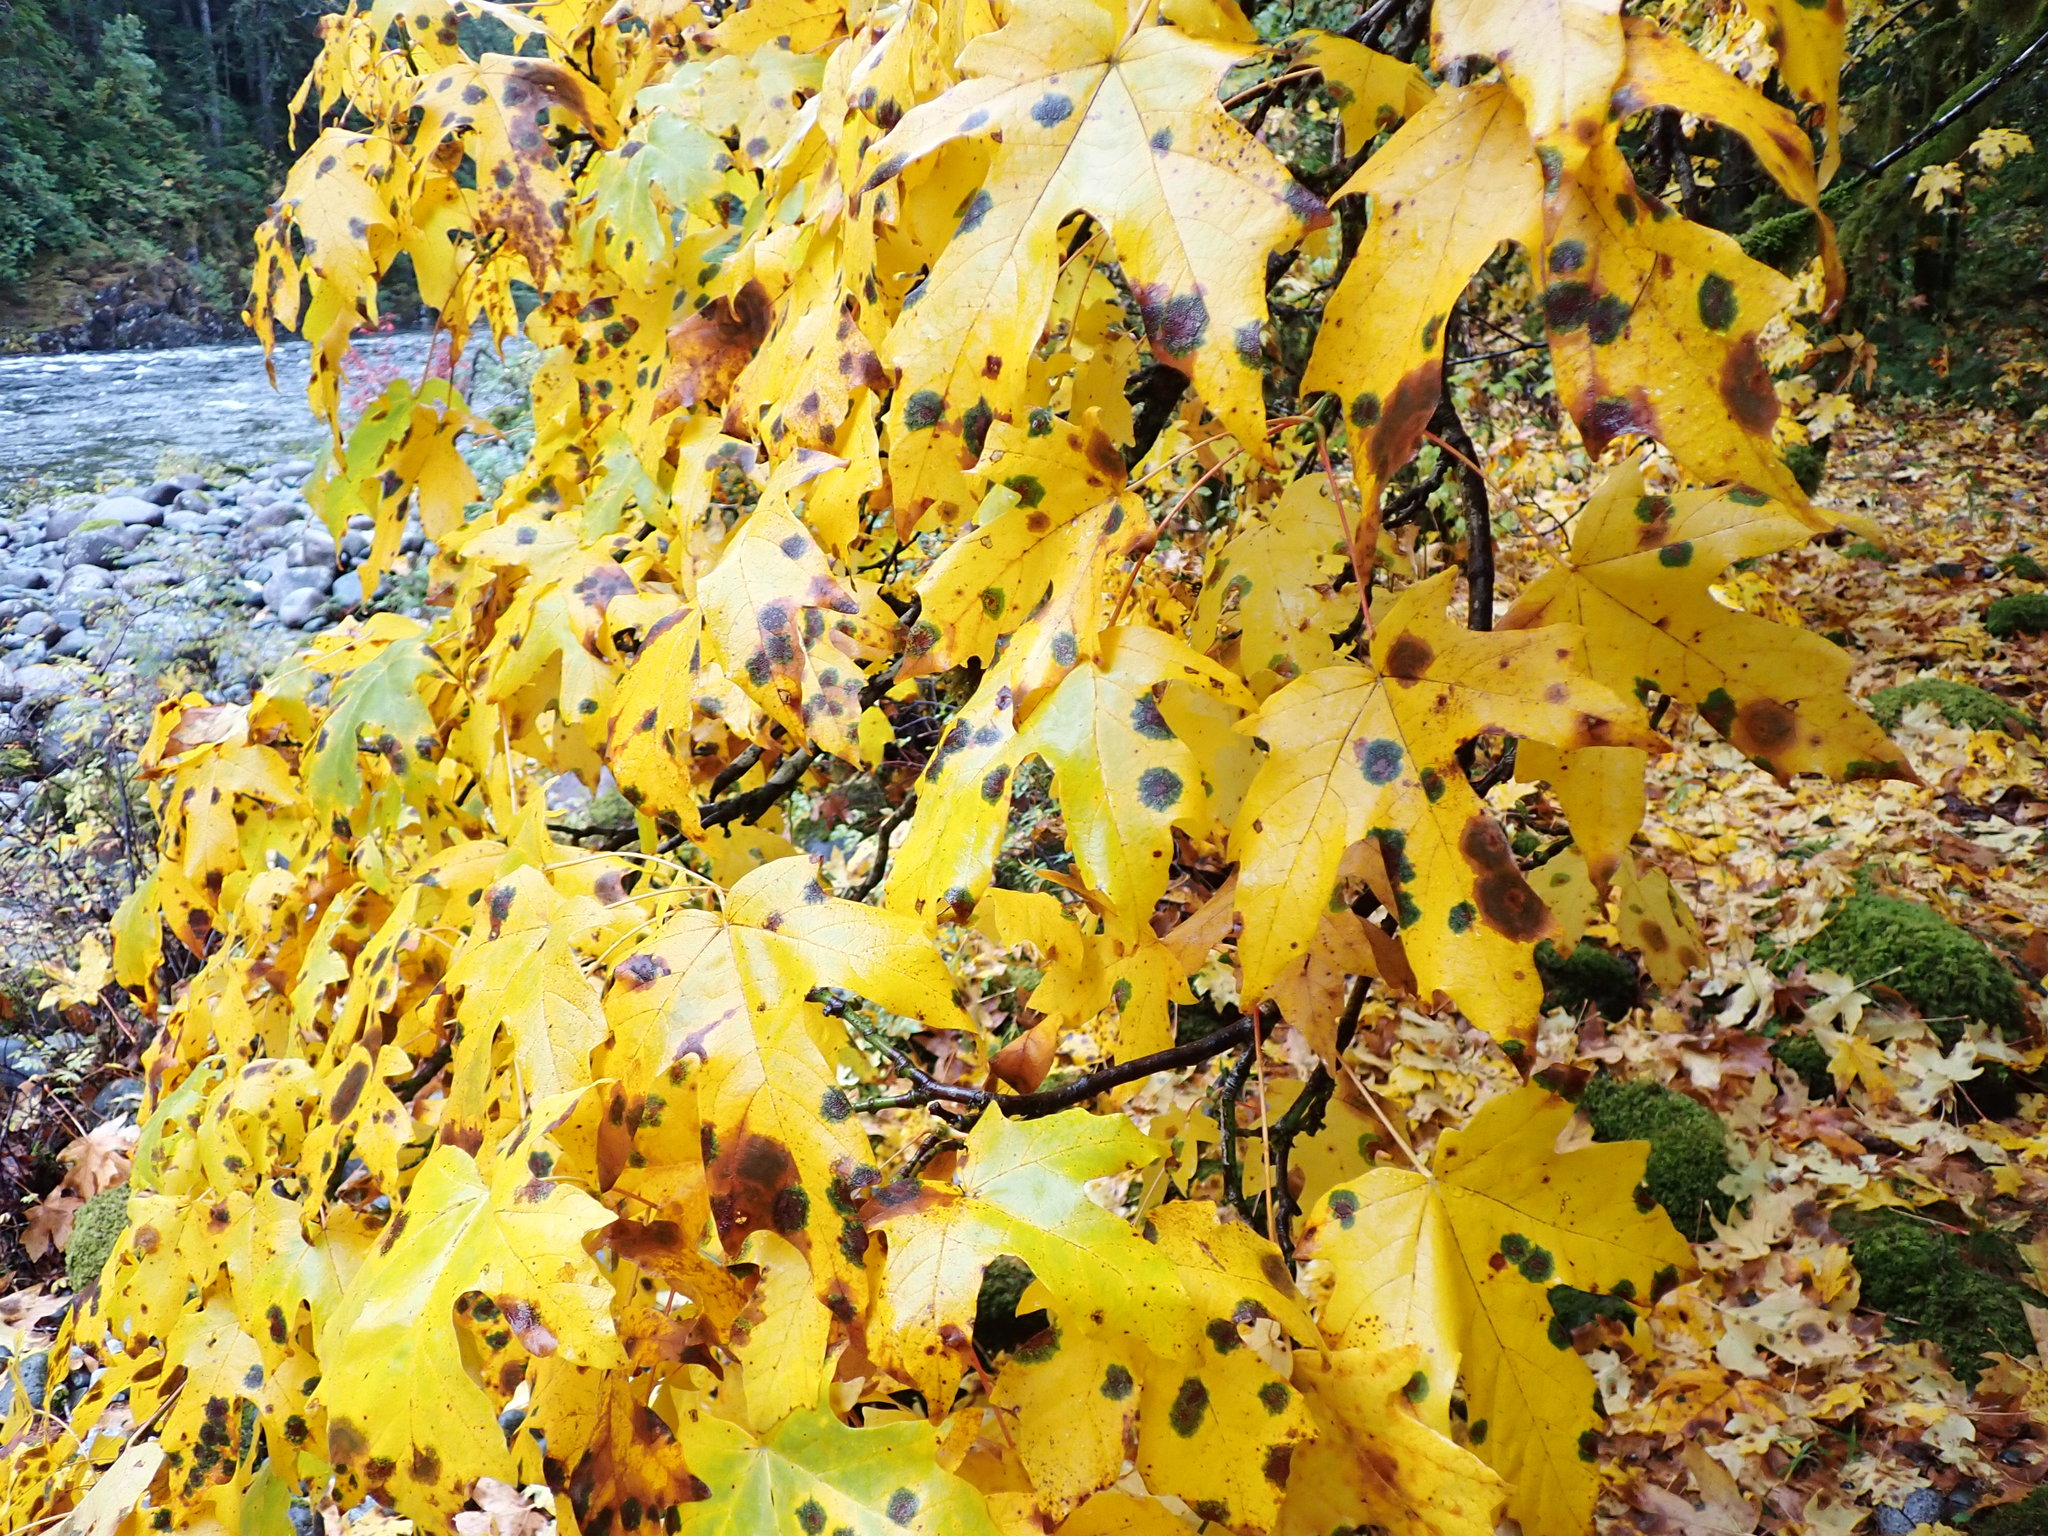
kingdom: Fungi
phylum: Ascomycota
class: Leotiomycetes
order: Rhytismatales
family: Rhytismataceae
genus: Rhytisma
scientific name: Rhytisma punctatum
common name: Speckled tar spot
